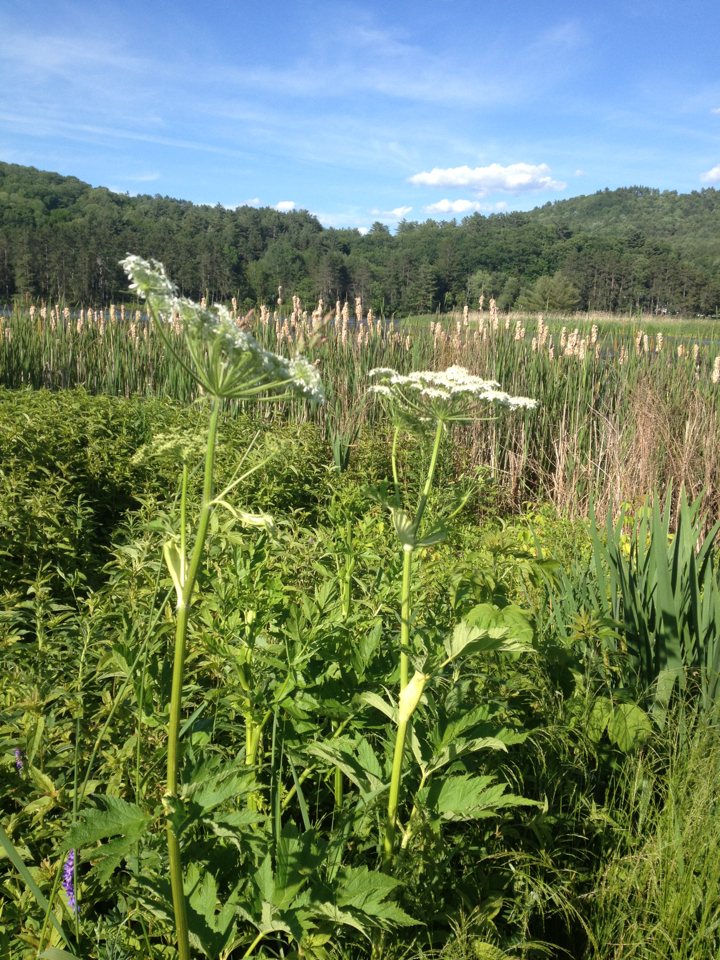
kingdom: Plantae
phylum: Tracheophyta
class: Magnoliopsida
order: Apiales
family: Apiaceae
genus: Heracleum
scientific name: Heracleum maximum
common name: American cow parsnip
